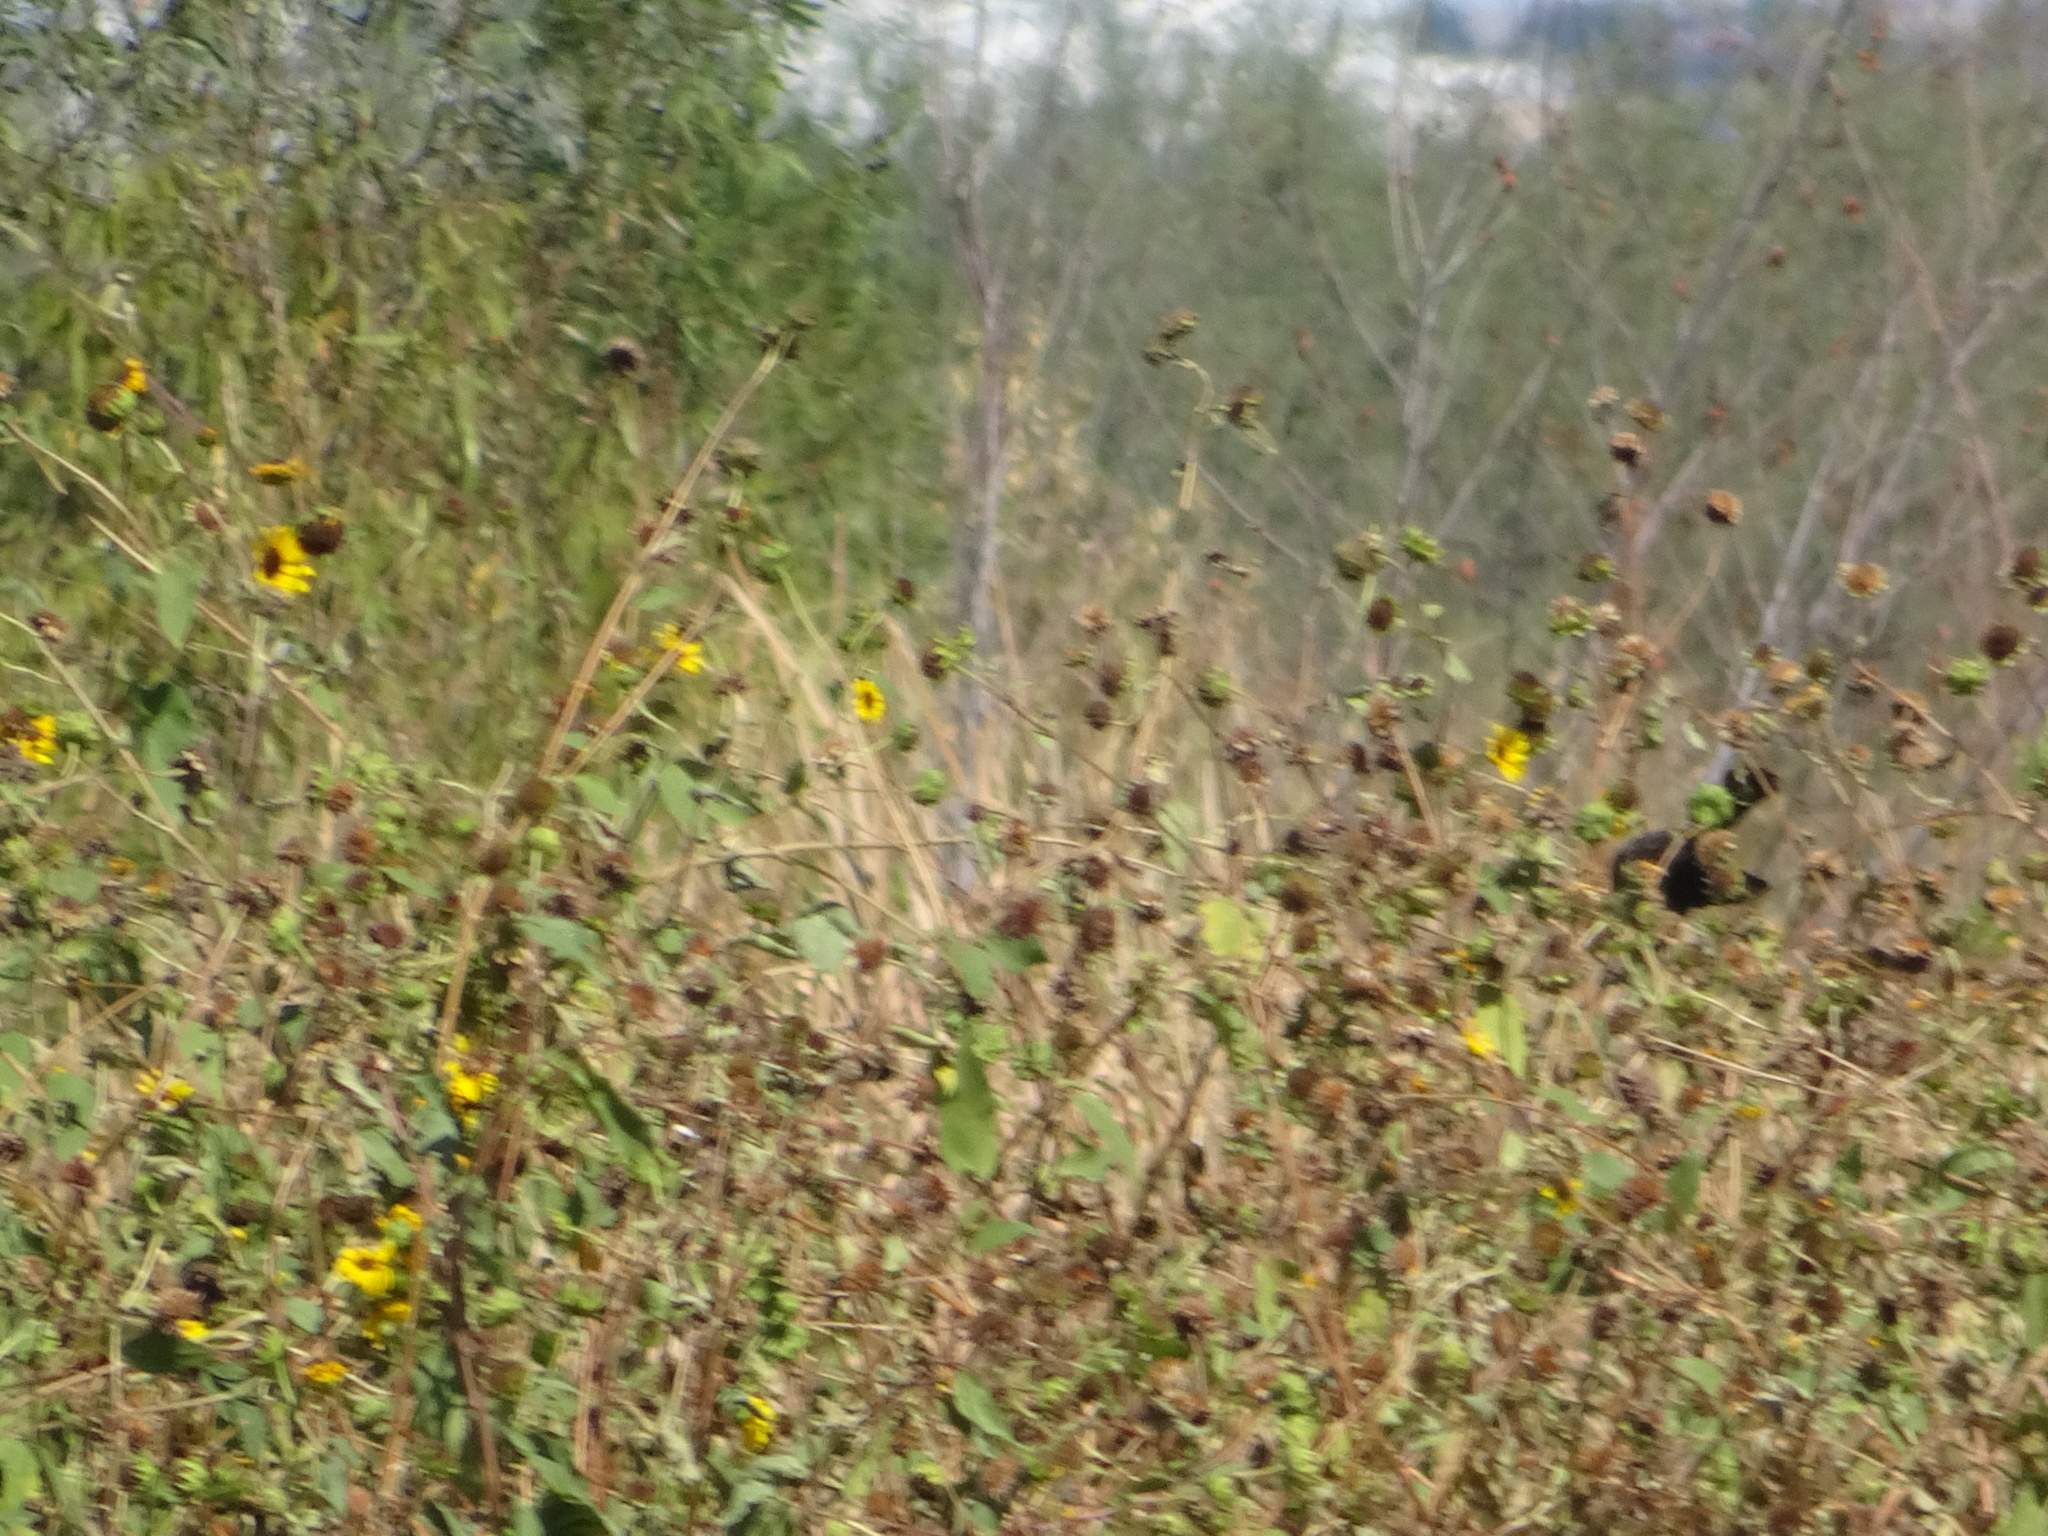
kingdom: Animalia
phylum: Chordata
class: Aves
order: Passeriformes
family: Icteridae
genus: Agelaius
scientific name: Agelaius phoeniceus
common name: Red-winged blackbird
